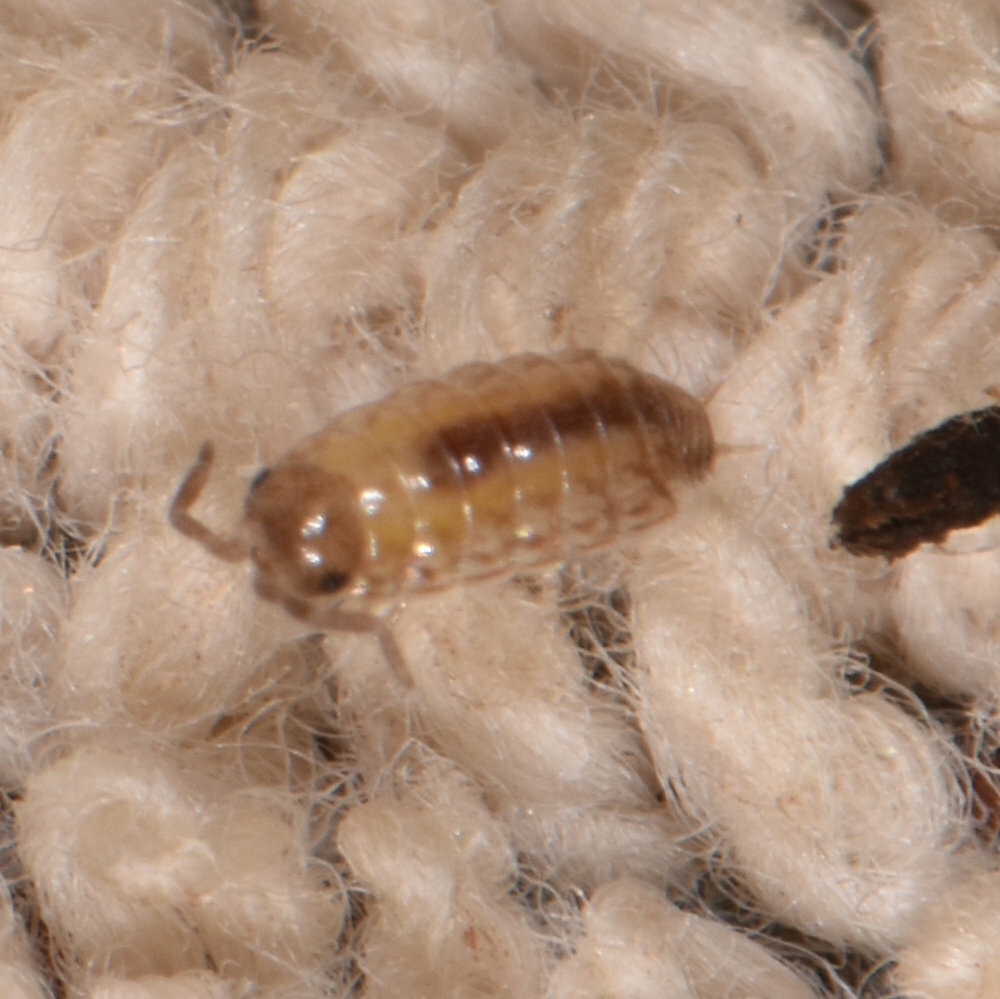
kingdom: Animalia
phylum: Arthropoda
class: Malacostraca
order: Isopoda
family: Philosciidae
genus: Philoscia
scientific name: Philoscia muscorum
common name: Common striped woodlouse
